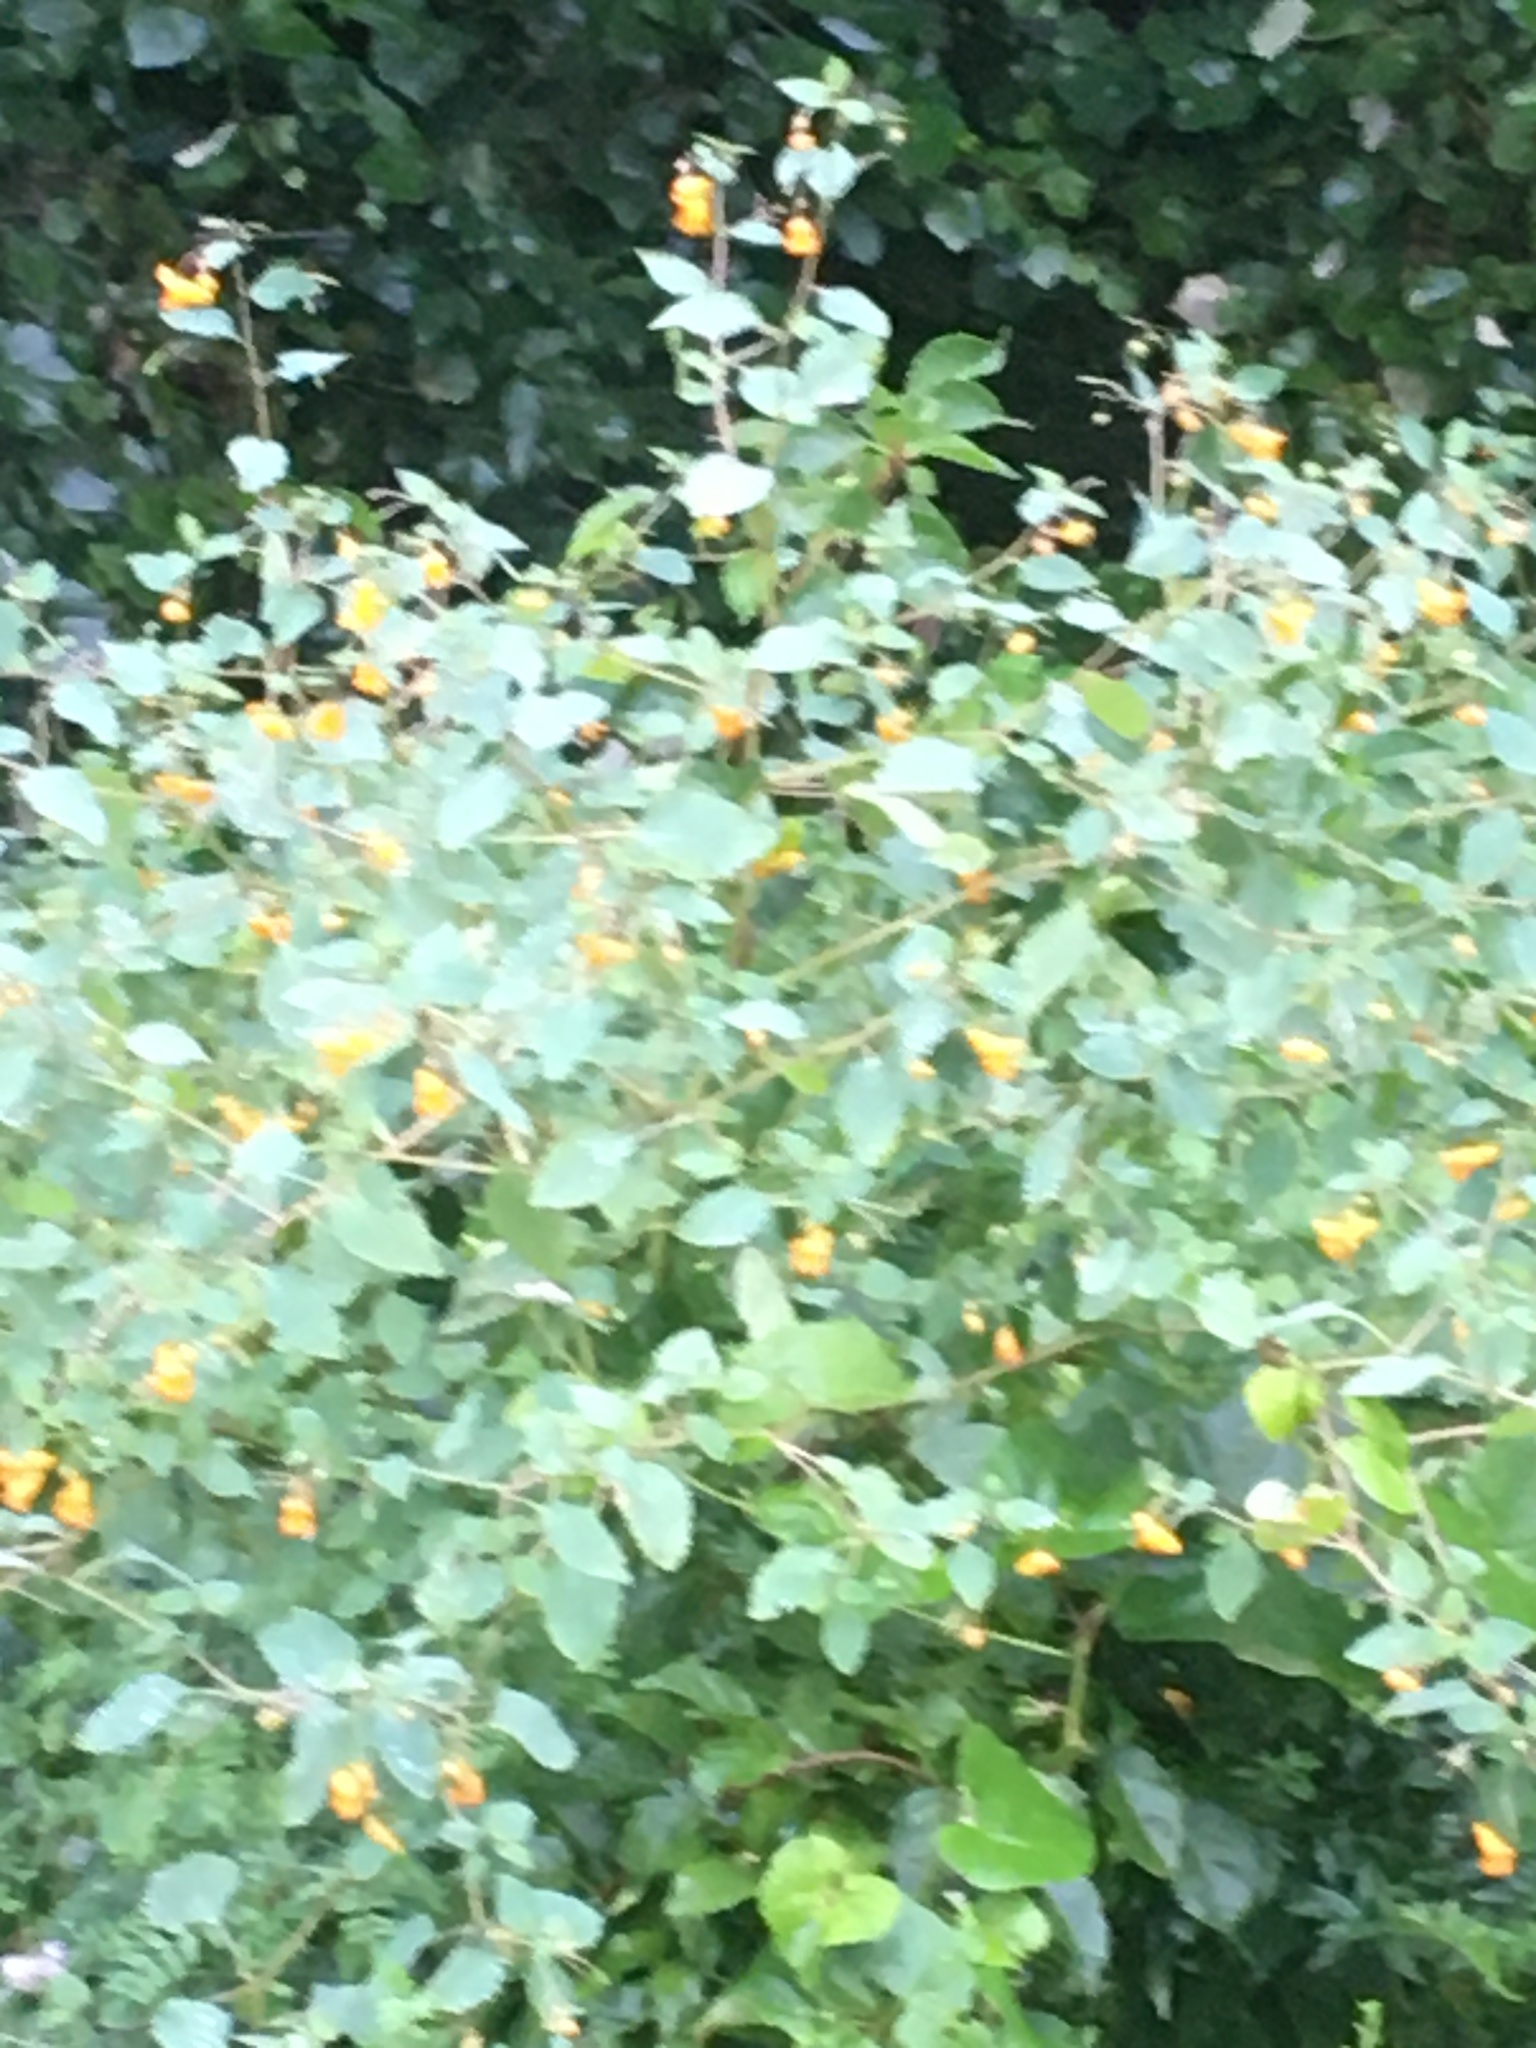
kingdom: Plantae
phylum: Tracheophyta
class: Magnoliopsida
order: Ericales
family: Balsaminaceae
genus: Impatiens
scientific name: Impatiens capensis
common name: Orange balsam
